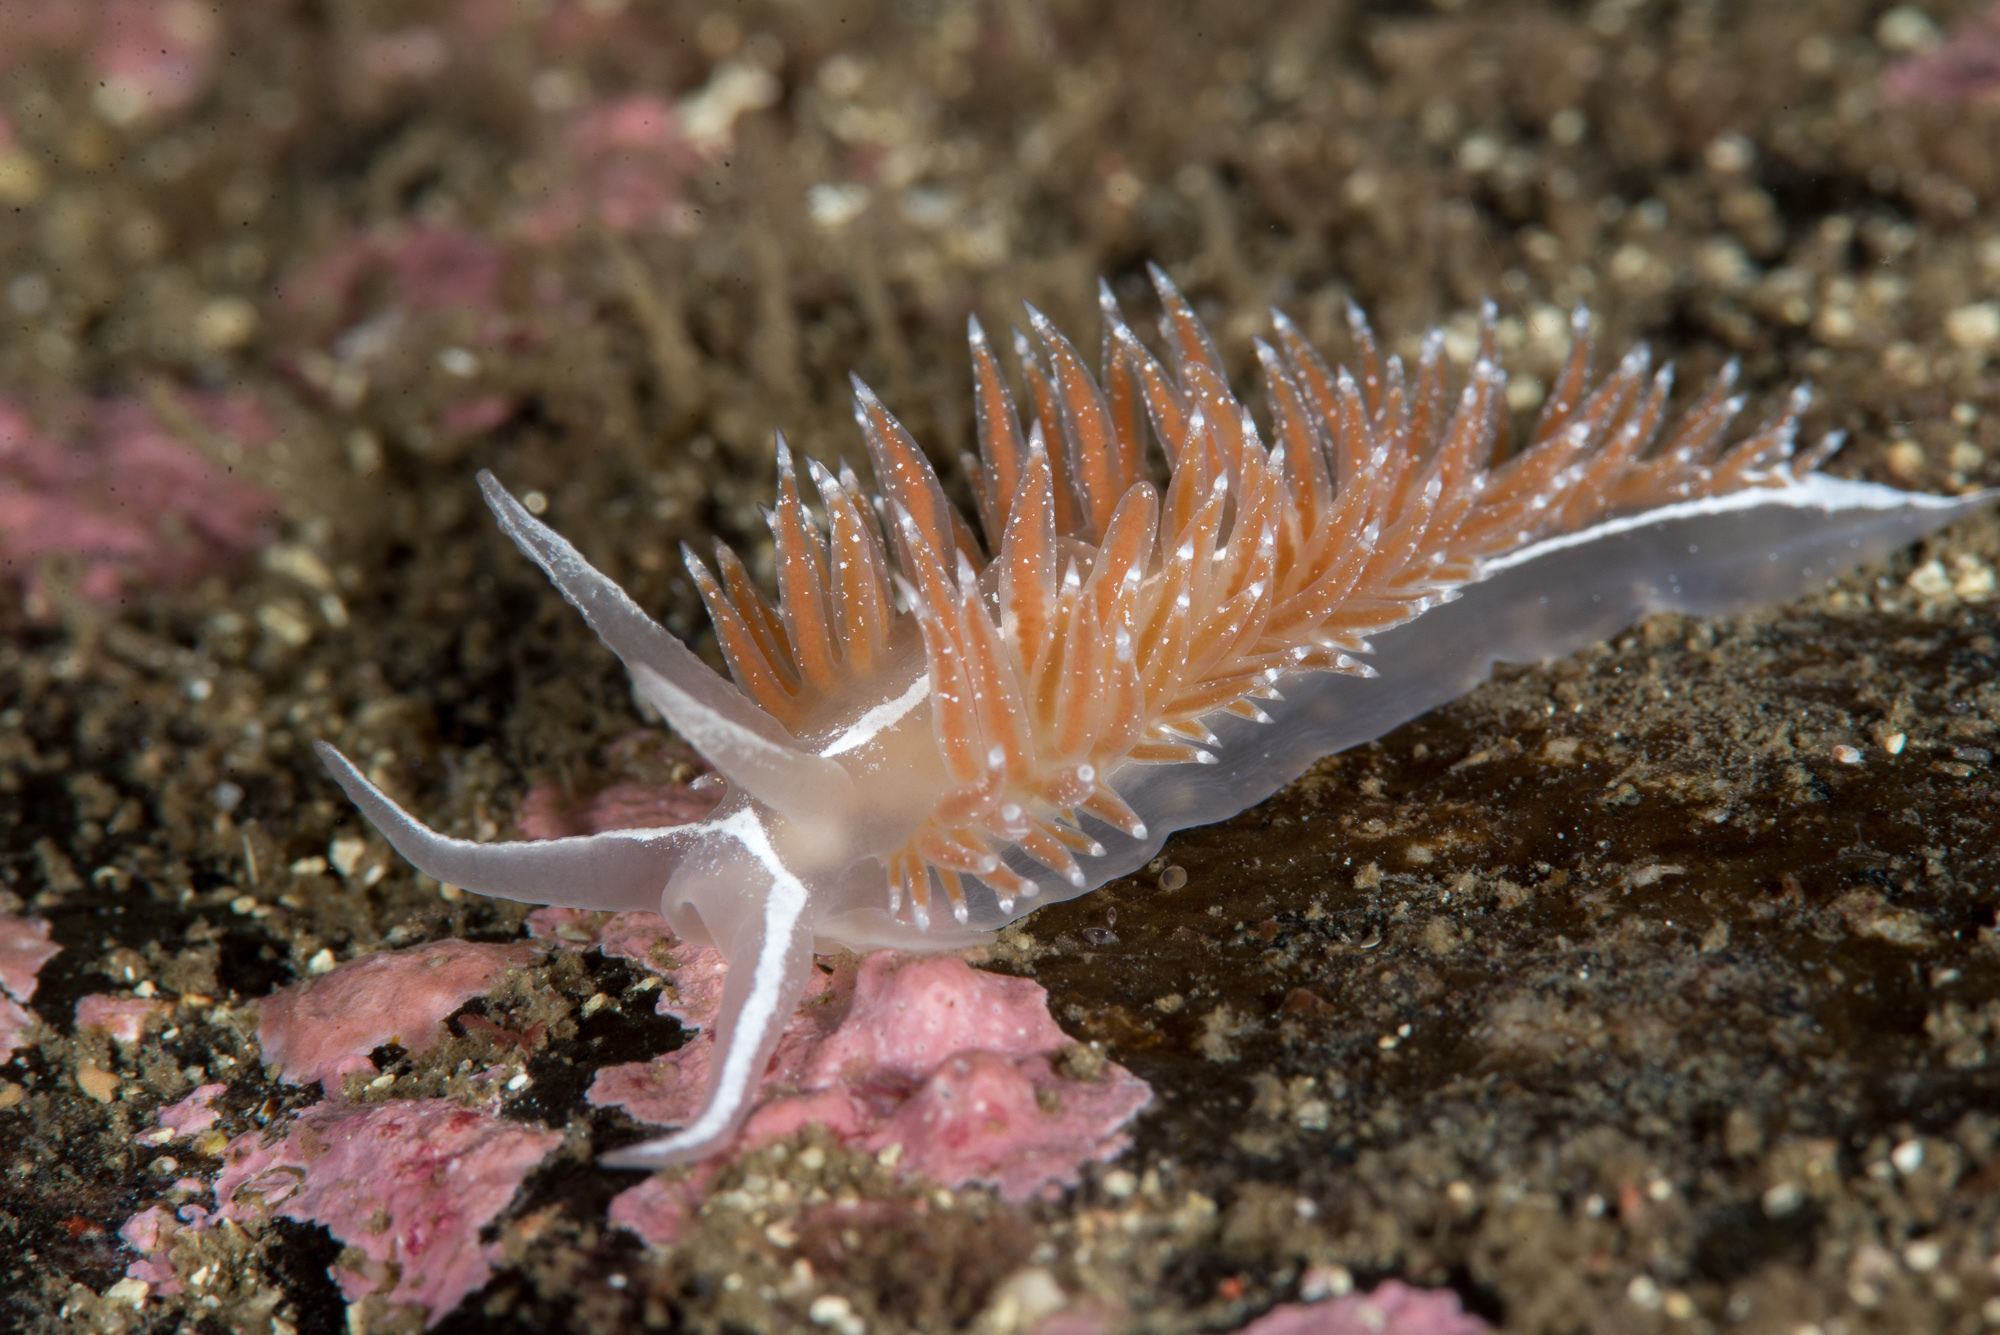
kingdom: Animalia
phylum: Mollusca
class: Gastropoda
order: Nudibranchia
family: Coryphellidae
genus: Coryphella
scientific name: Coryphella monicae
